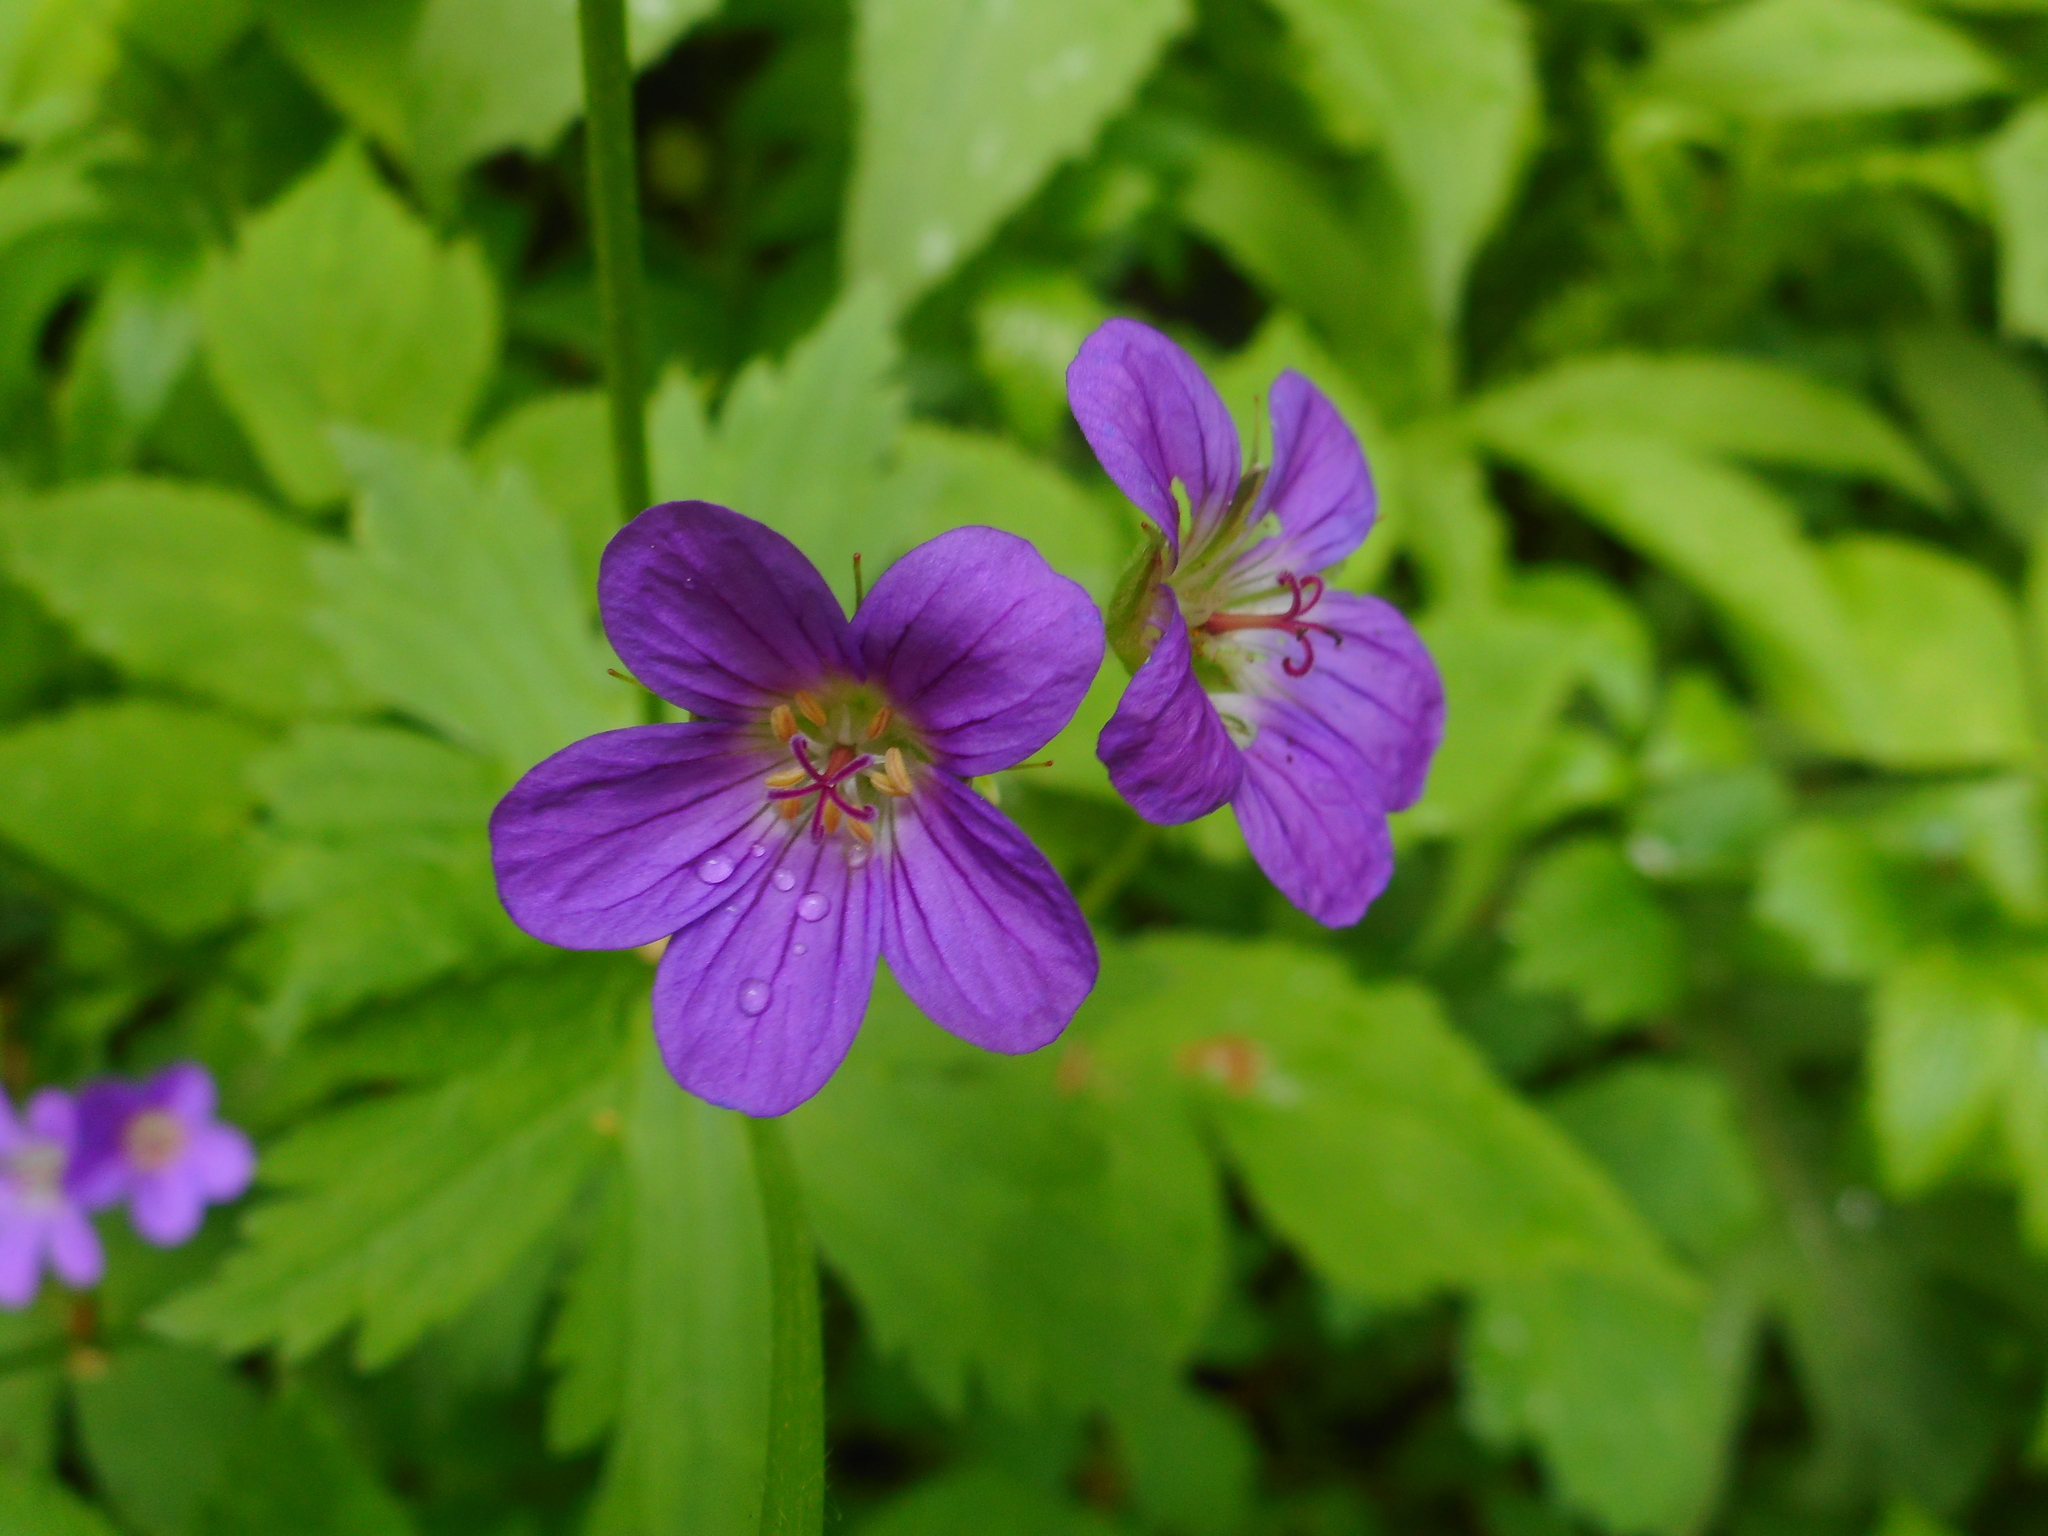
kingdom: Plantae
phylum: Tracheophyta
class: Magnoliopsida
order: Geraniales
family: Geraniaceae
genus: Geranium
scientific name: Geranium sylvaticum
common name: Wood crane's-bill
